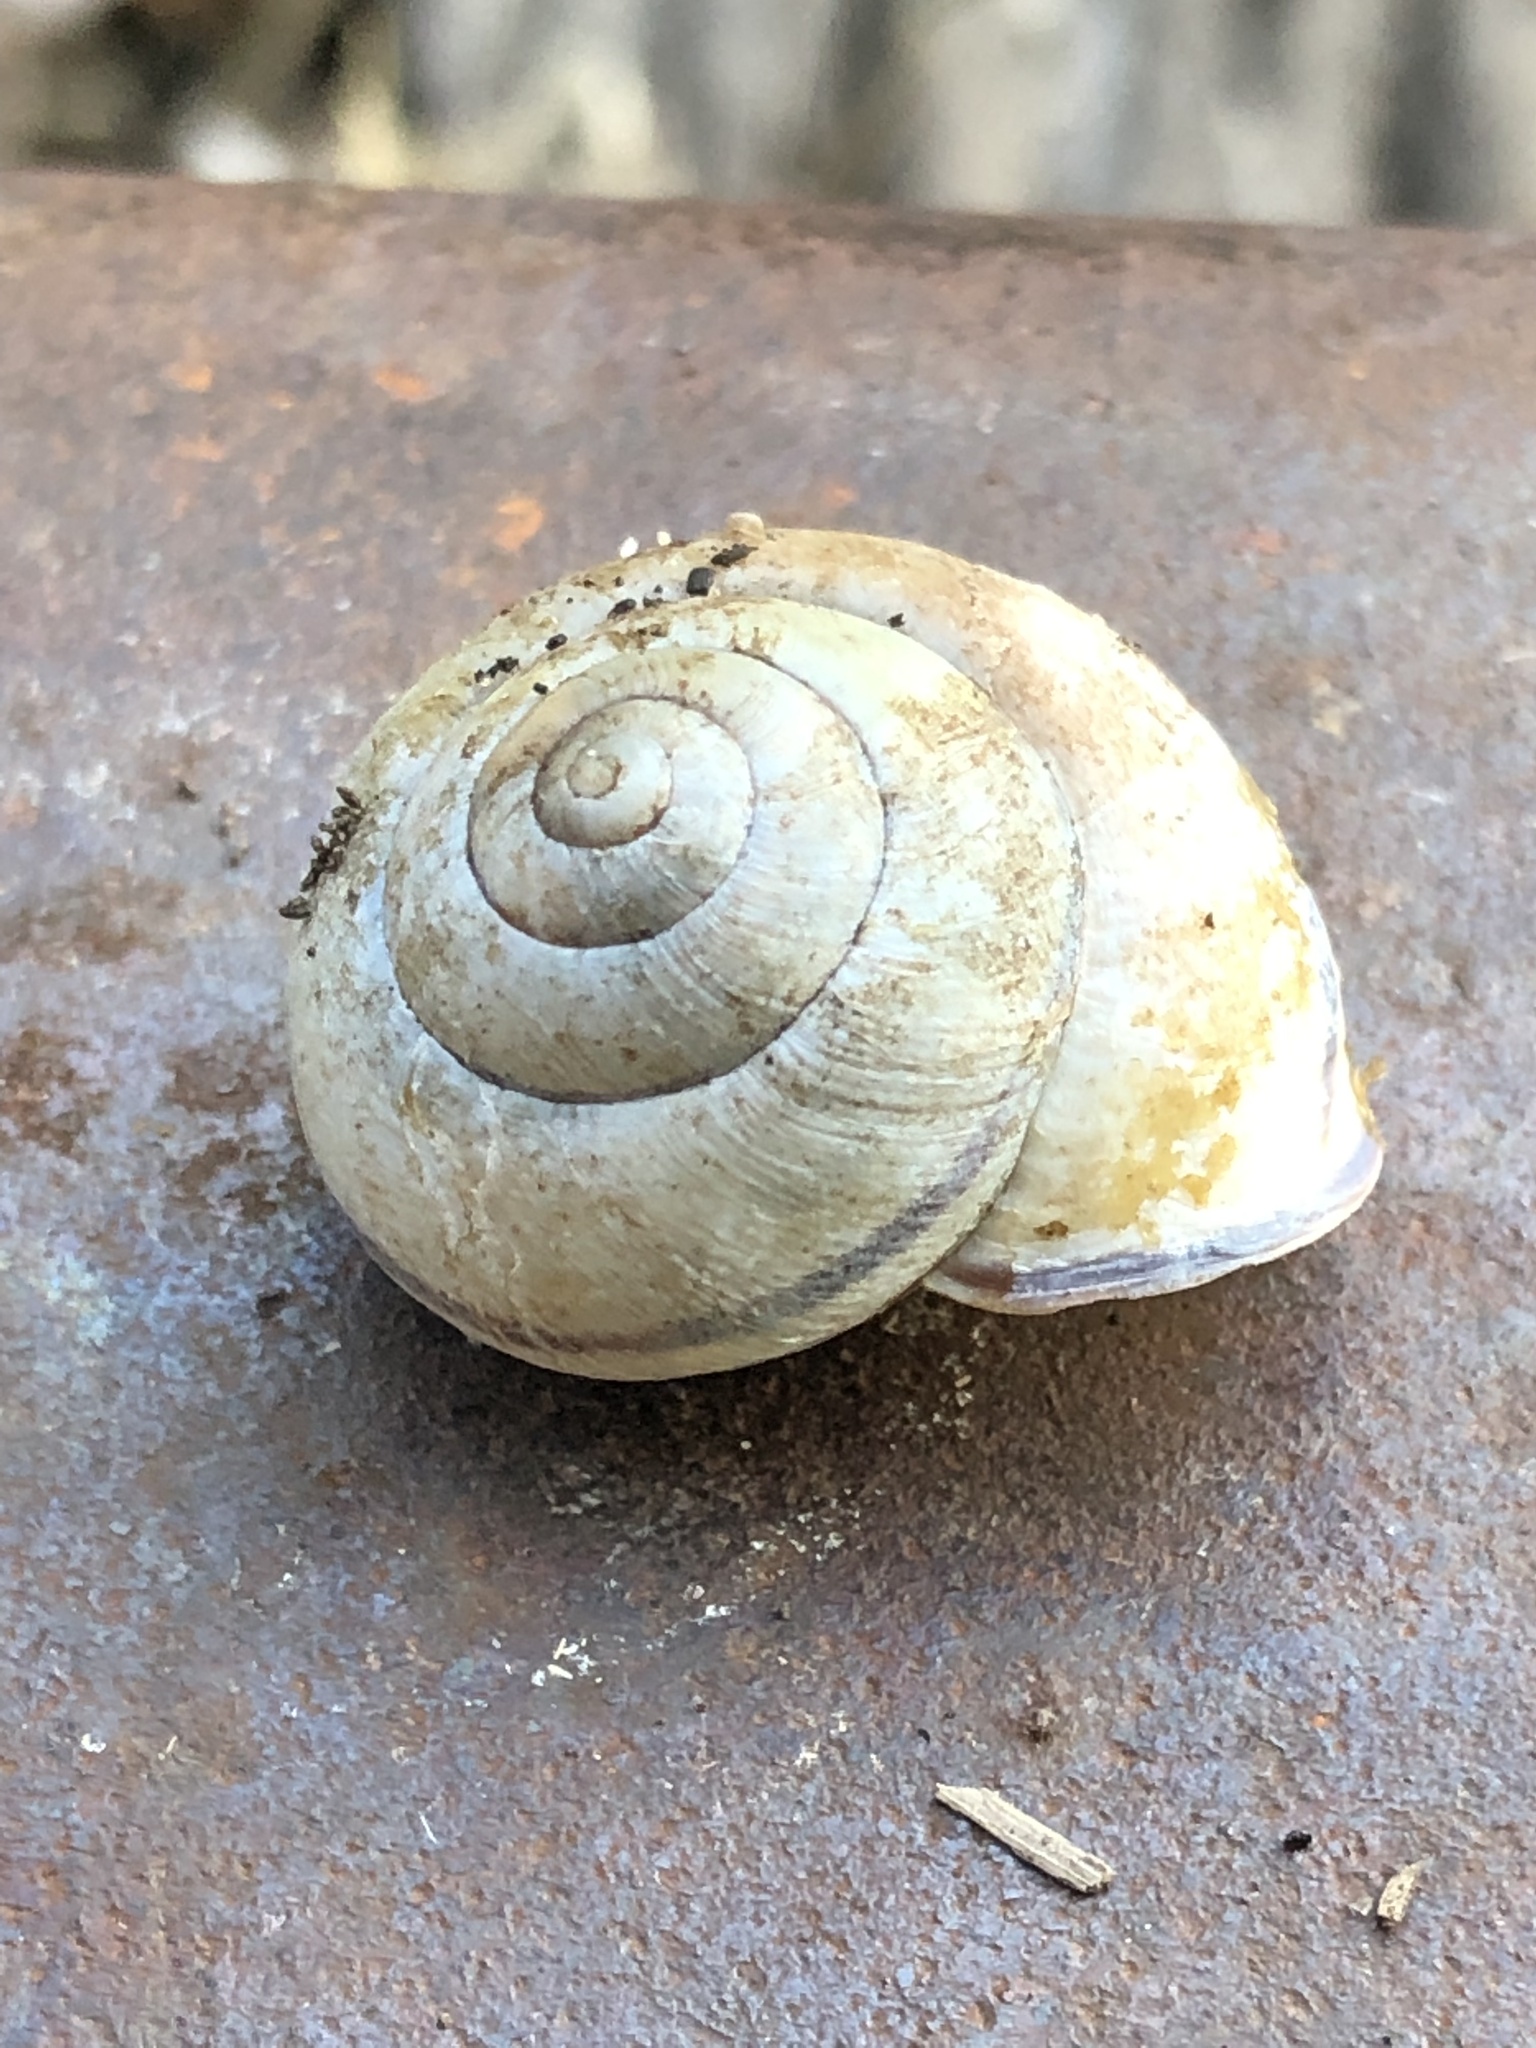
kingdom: Animalia
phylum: Mollusca
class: Gastropoda
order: Stylommatophora
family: Helicidae
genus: Cepaea
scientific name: Cepaea nemoralis
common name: Grovesnail
